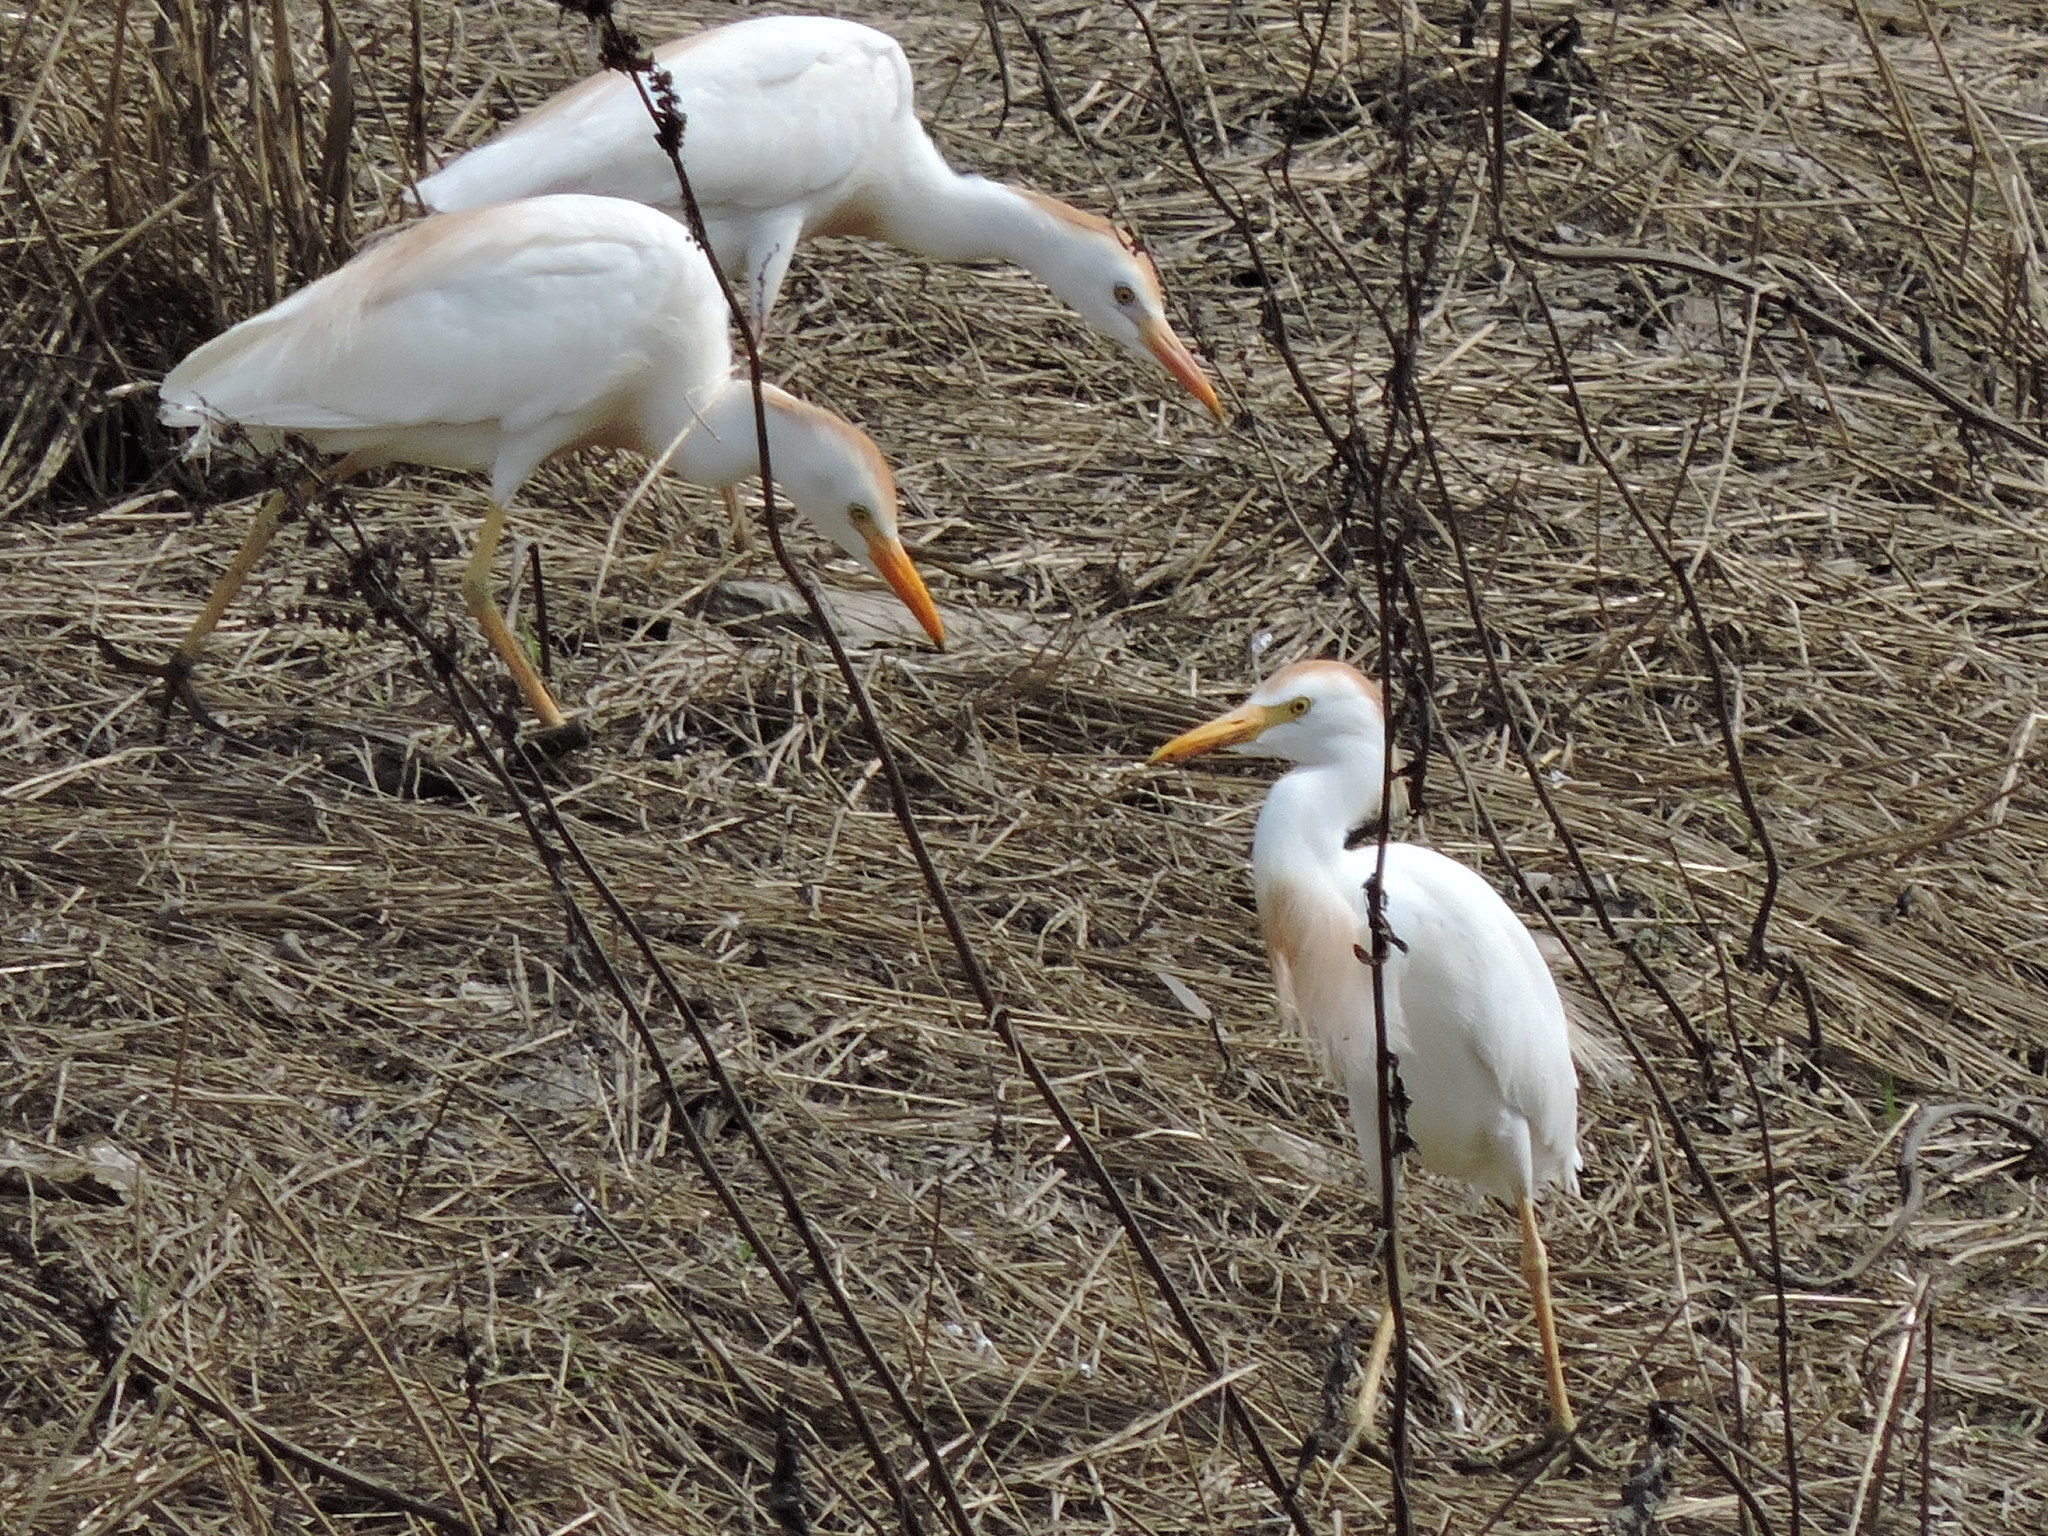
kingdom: Animalia
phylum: Chordata
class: Aves
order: Pelecaniformes
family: Ardeidae
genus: Bubulcus
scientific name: Bubulcus ibis
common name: Cattle egret
